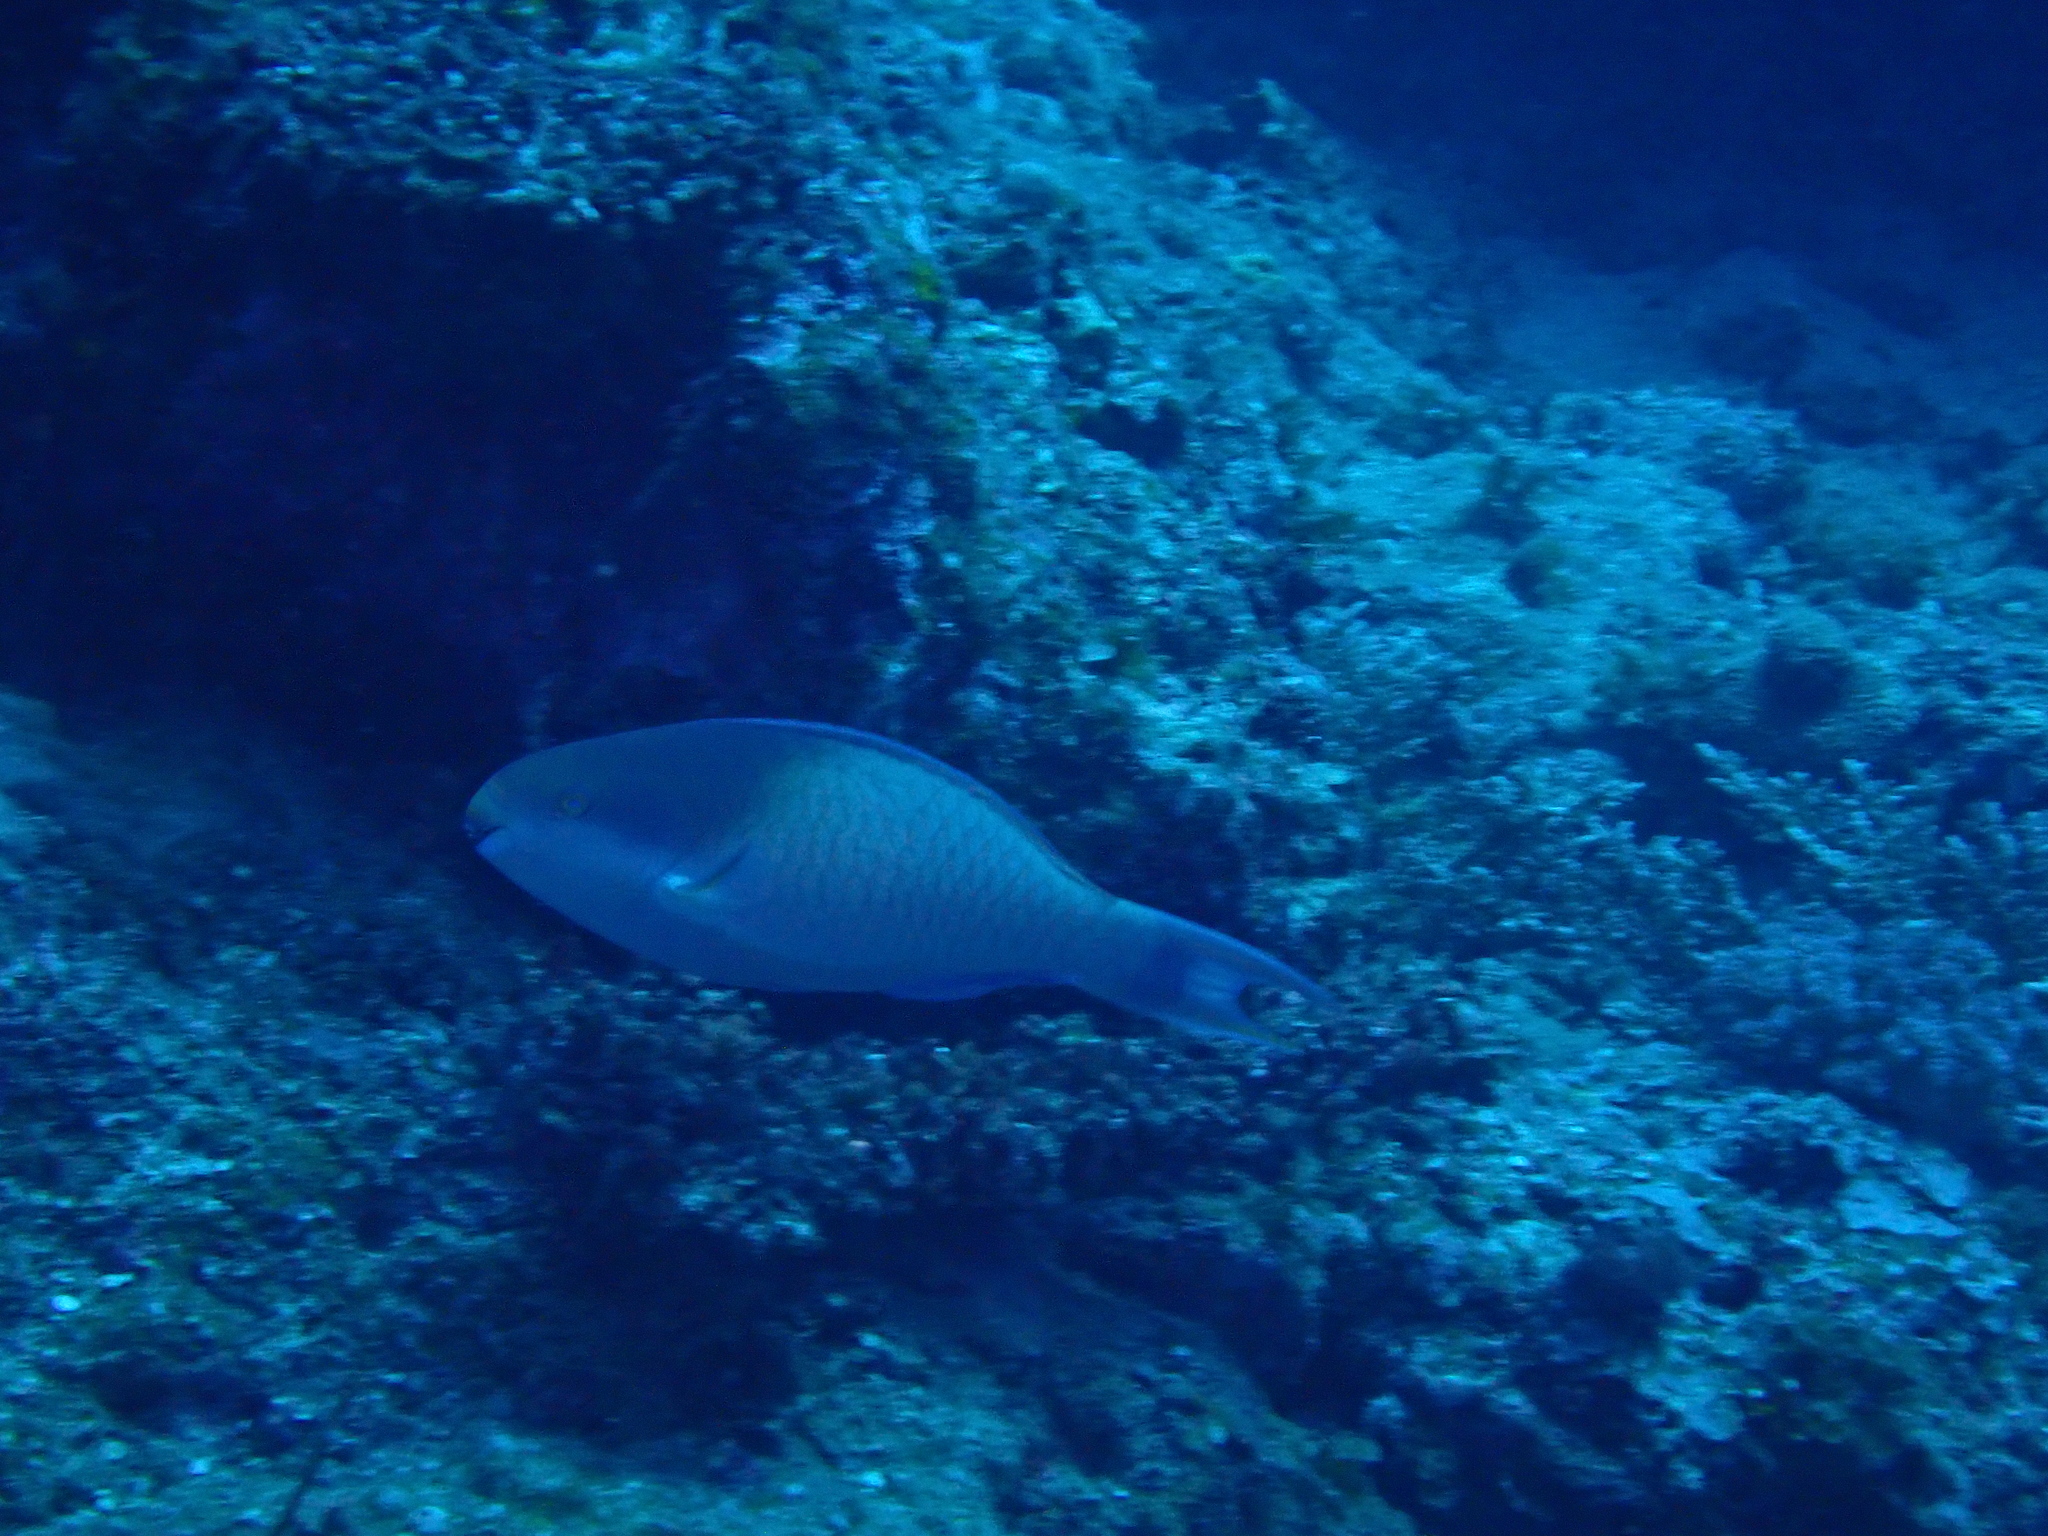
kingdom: Animalia
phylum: Chordata
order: Perciformes
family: Scaridae
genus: Scarus
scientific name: Scarus forsteni
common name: Forsten's parrotfish
